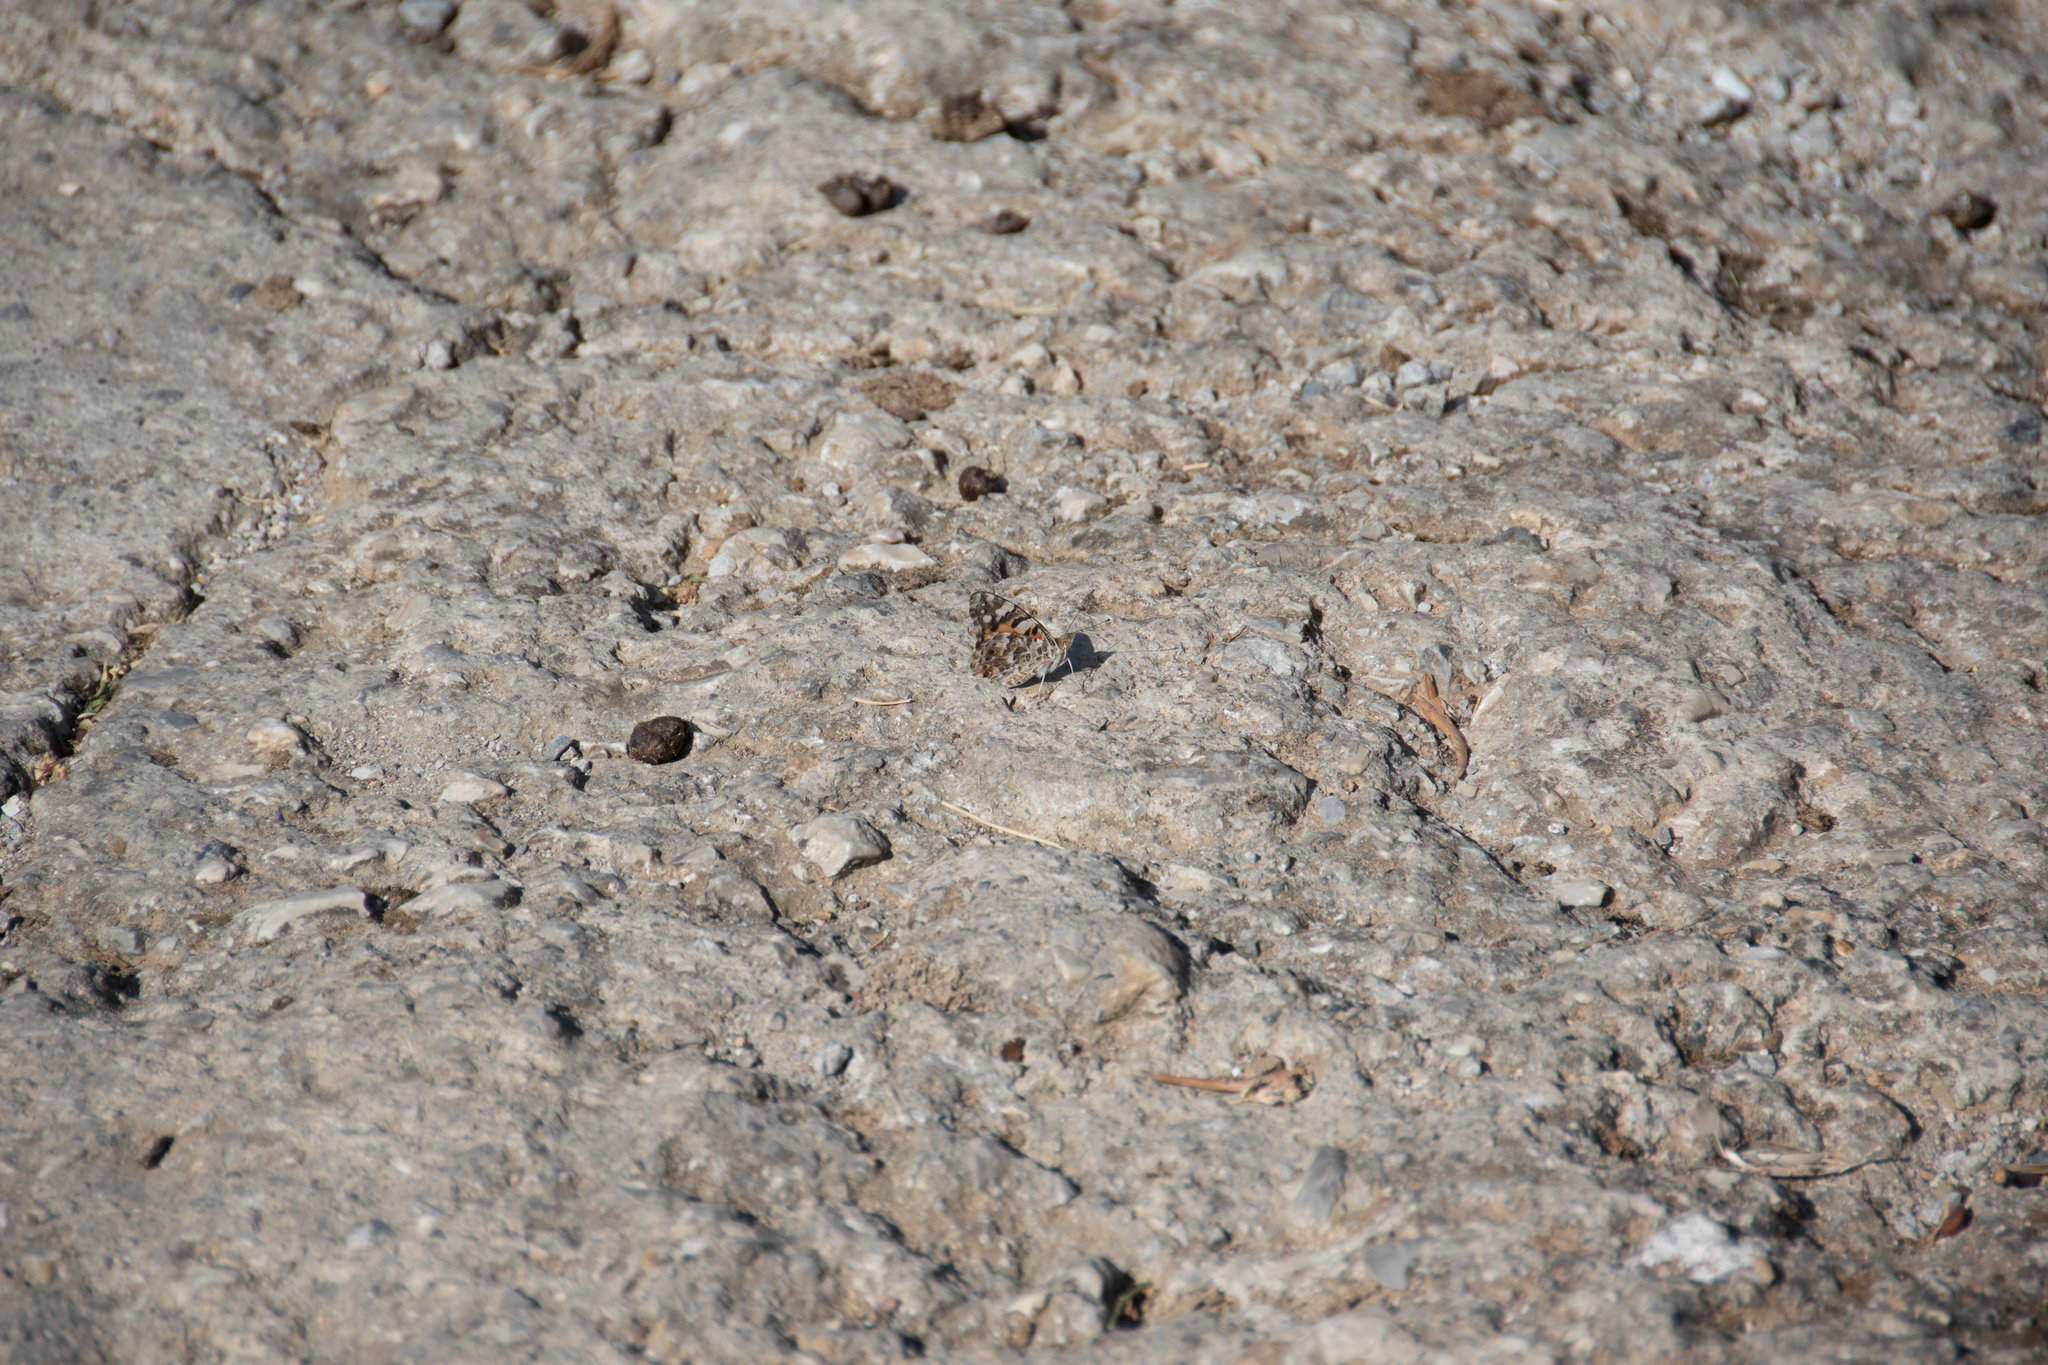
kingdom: Animalia
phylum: Arthropoda
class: Insecta
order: Lepidoptera
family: Nymphalidae
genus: Vanessa
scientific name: Vanessa cardui
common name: Painted lady
